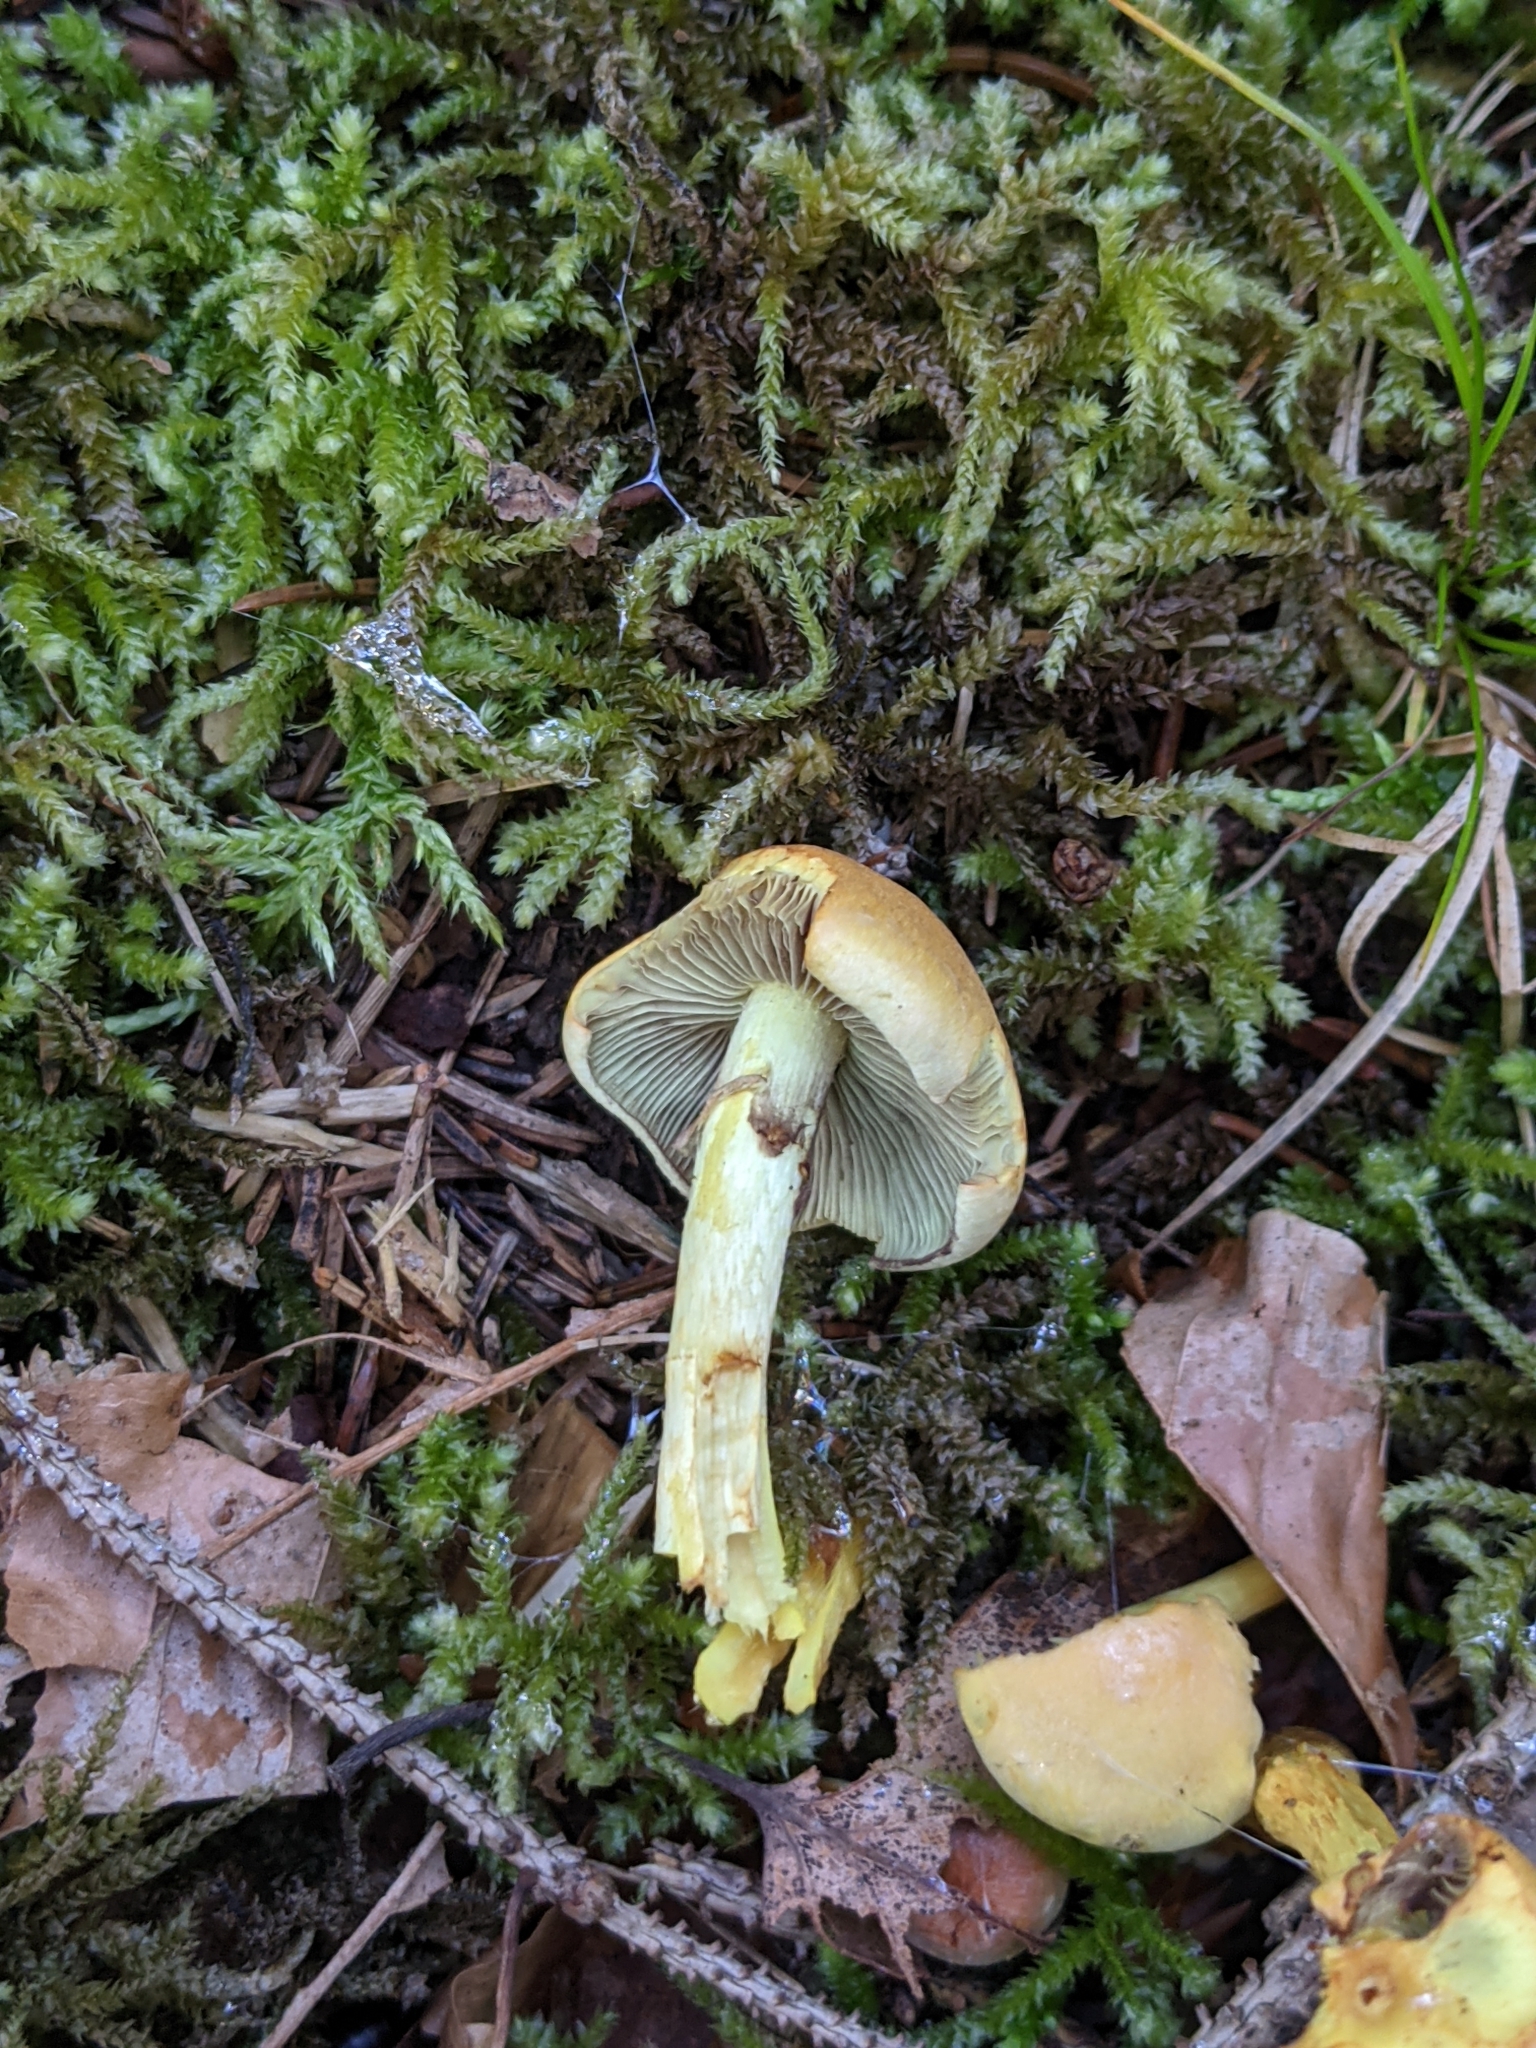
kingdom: Fungi
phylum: Basidiomycota
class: Agaricomycetes
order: Agaricales
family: Strophariaceae
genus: Hypholoma
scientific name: Hypholoma fasciculare
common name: Sulphur tuft
